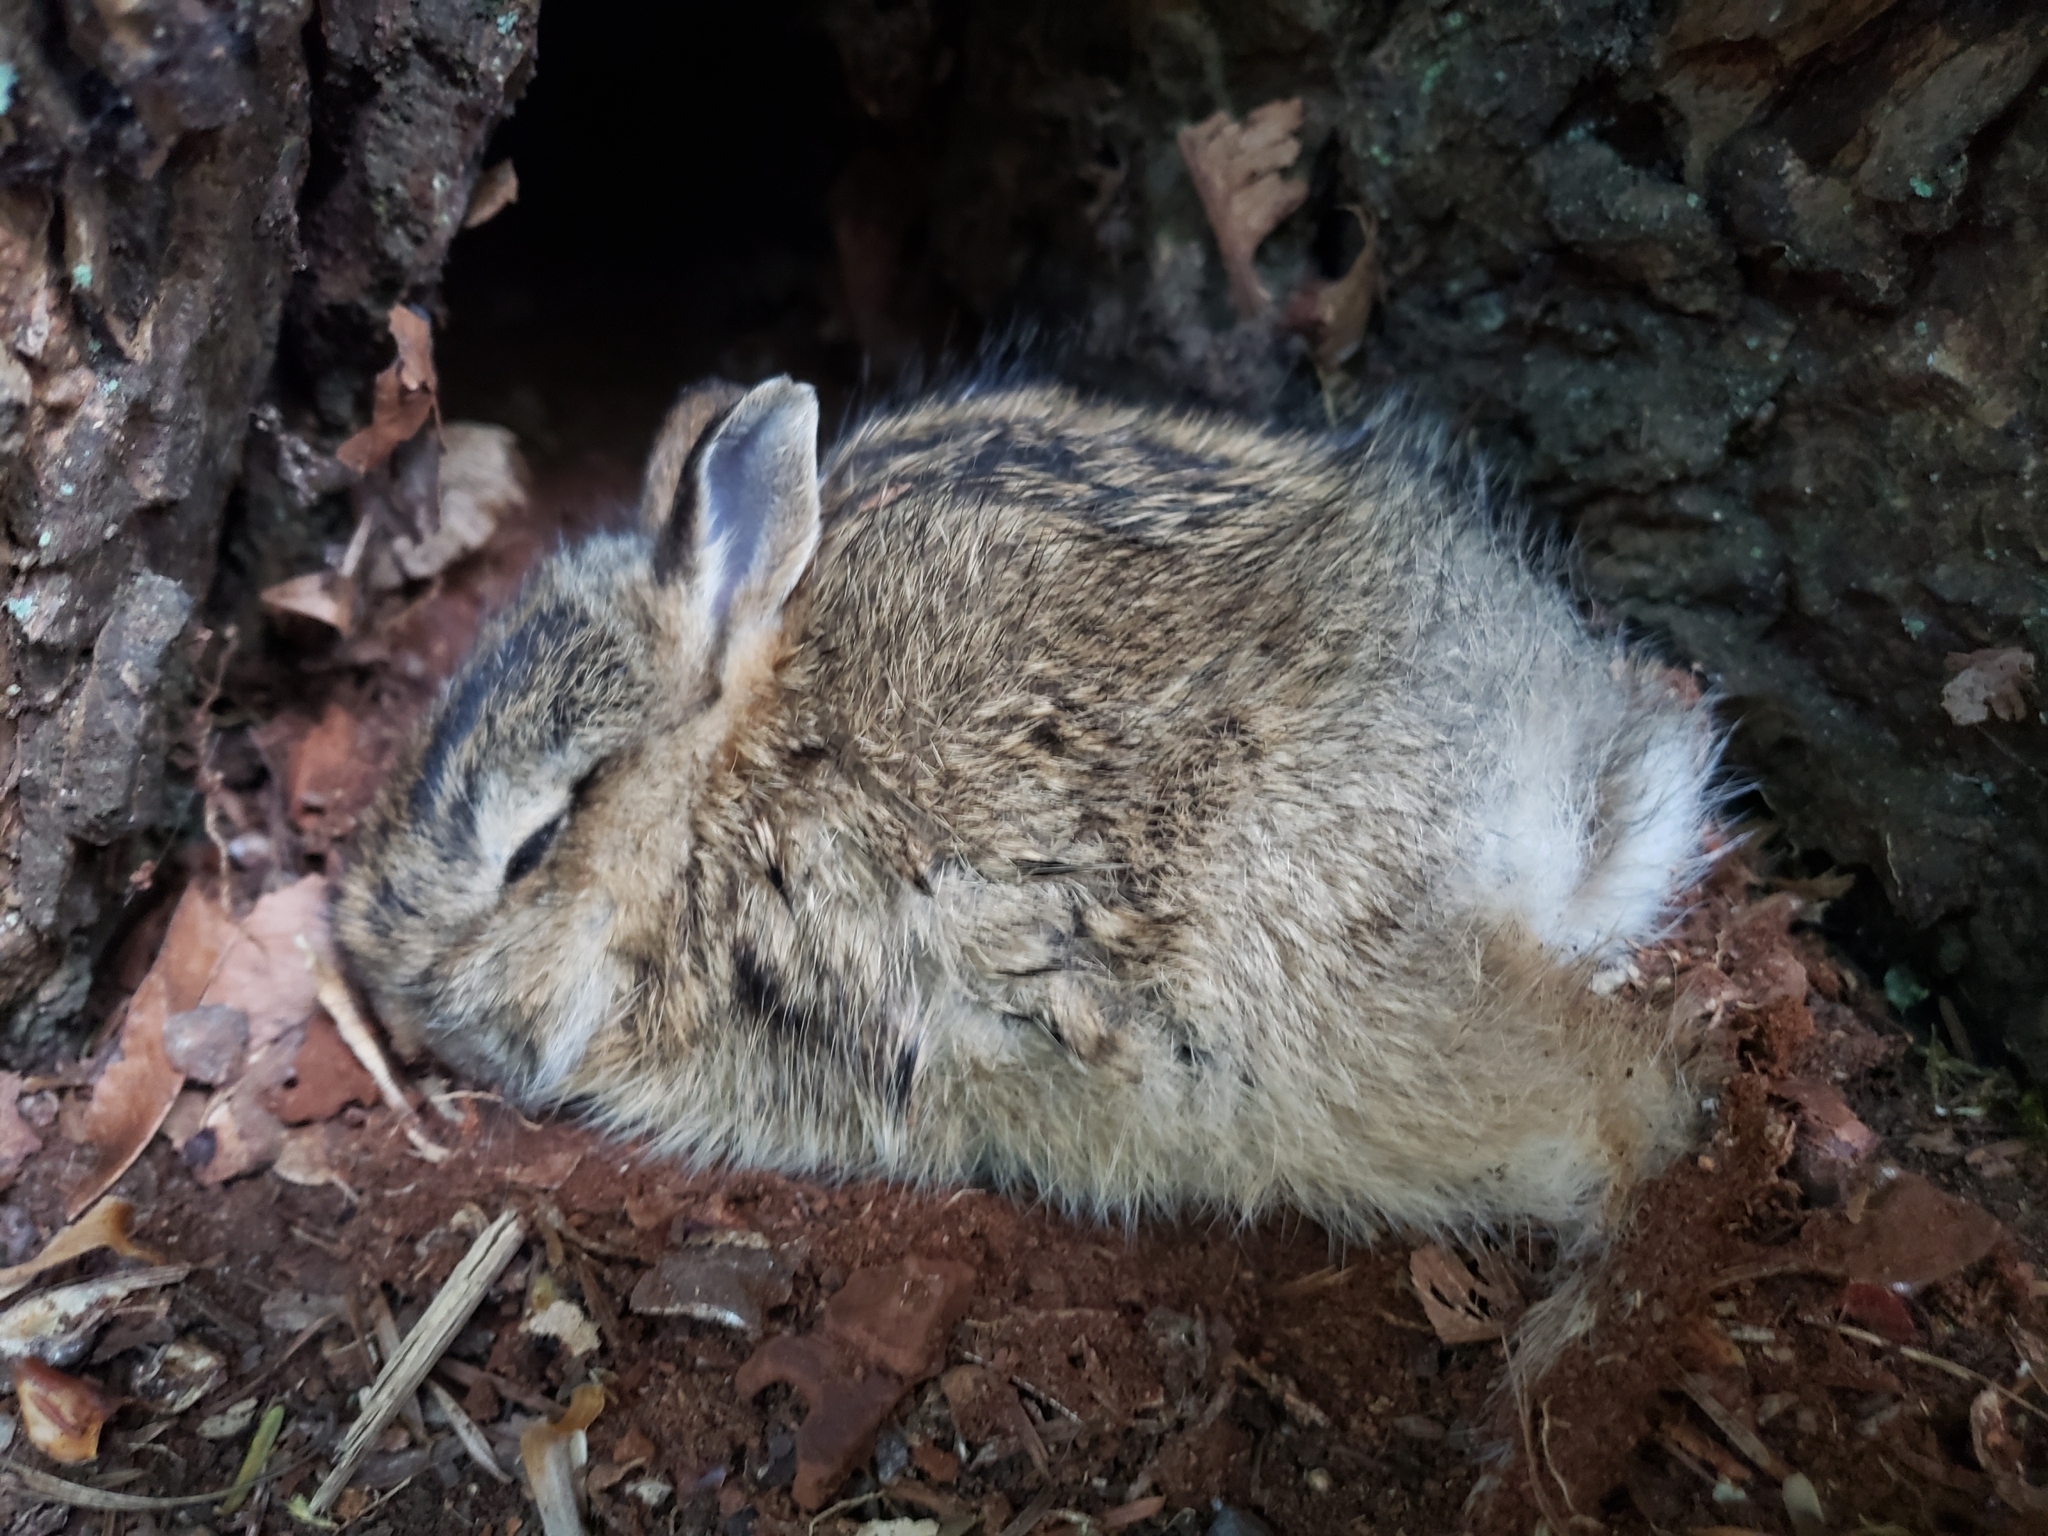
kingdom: Animalia
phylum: Chordata
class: Mammalia
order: Lagomorpha
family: Leporidae
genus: Sylvilagus
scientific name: Sylvilagus floridanus
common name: Eastern cottontail
